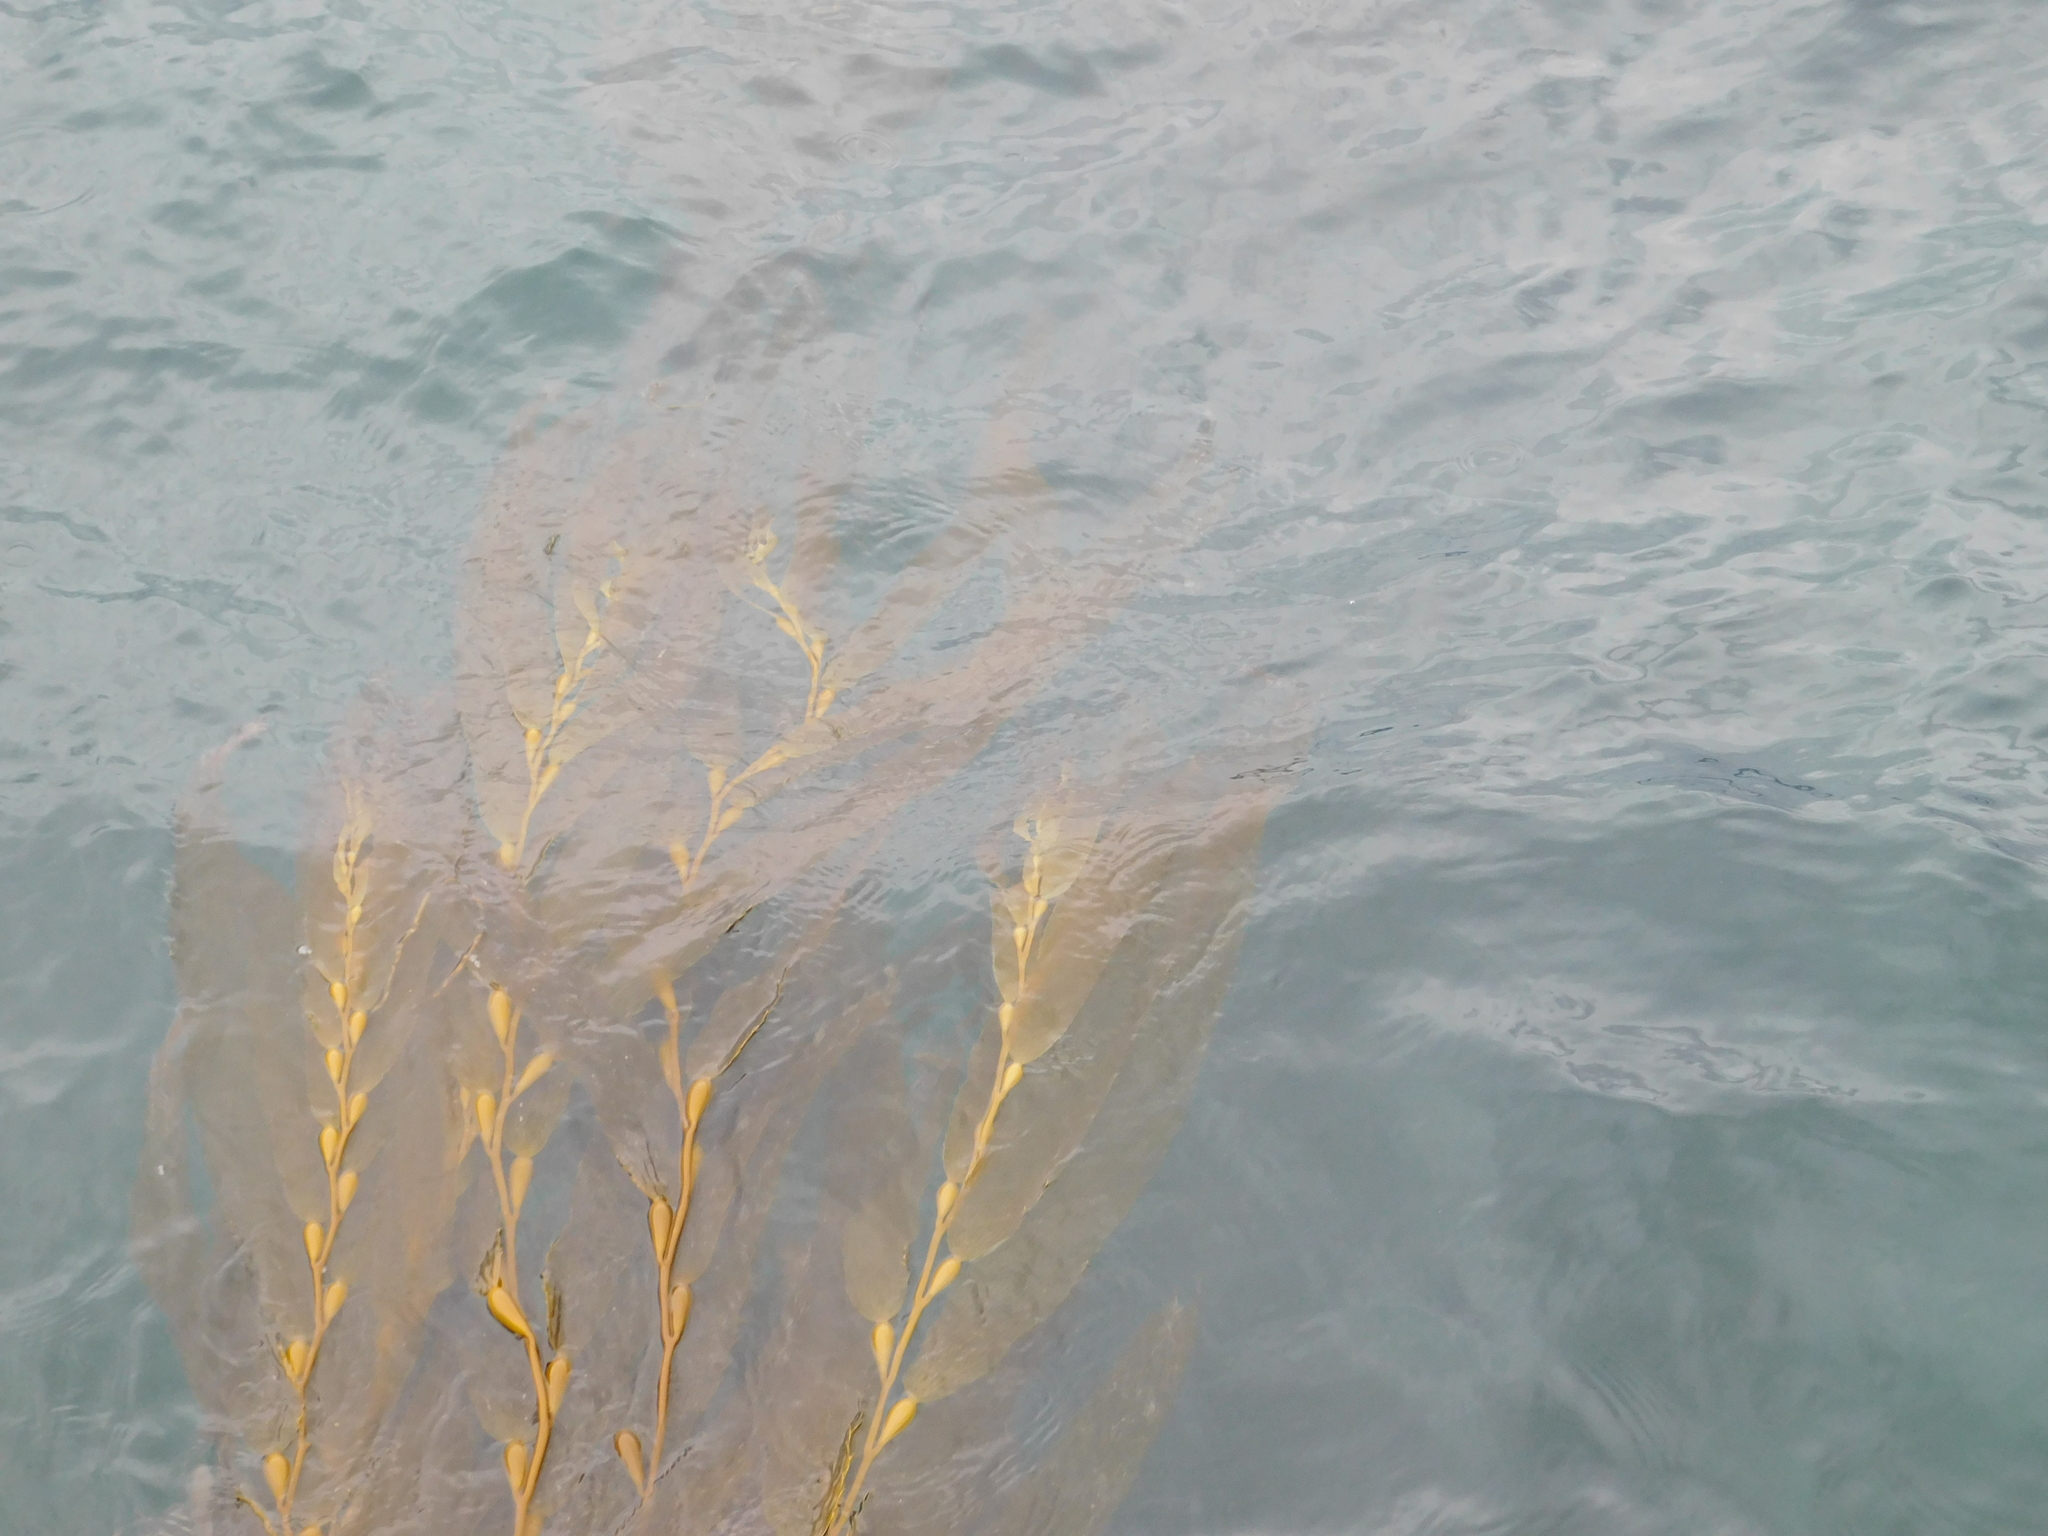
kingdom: Chromista
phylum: Ochrophyta
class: Phaeophyceae
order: Laminariales
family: Laminariaceae
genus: Macrocystis
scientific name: Macrocystis pyrifera
